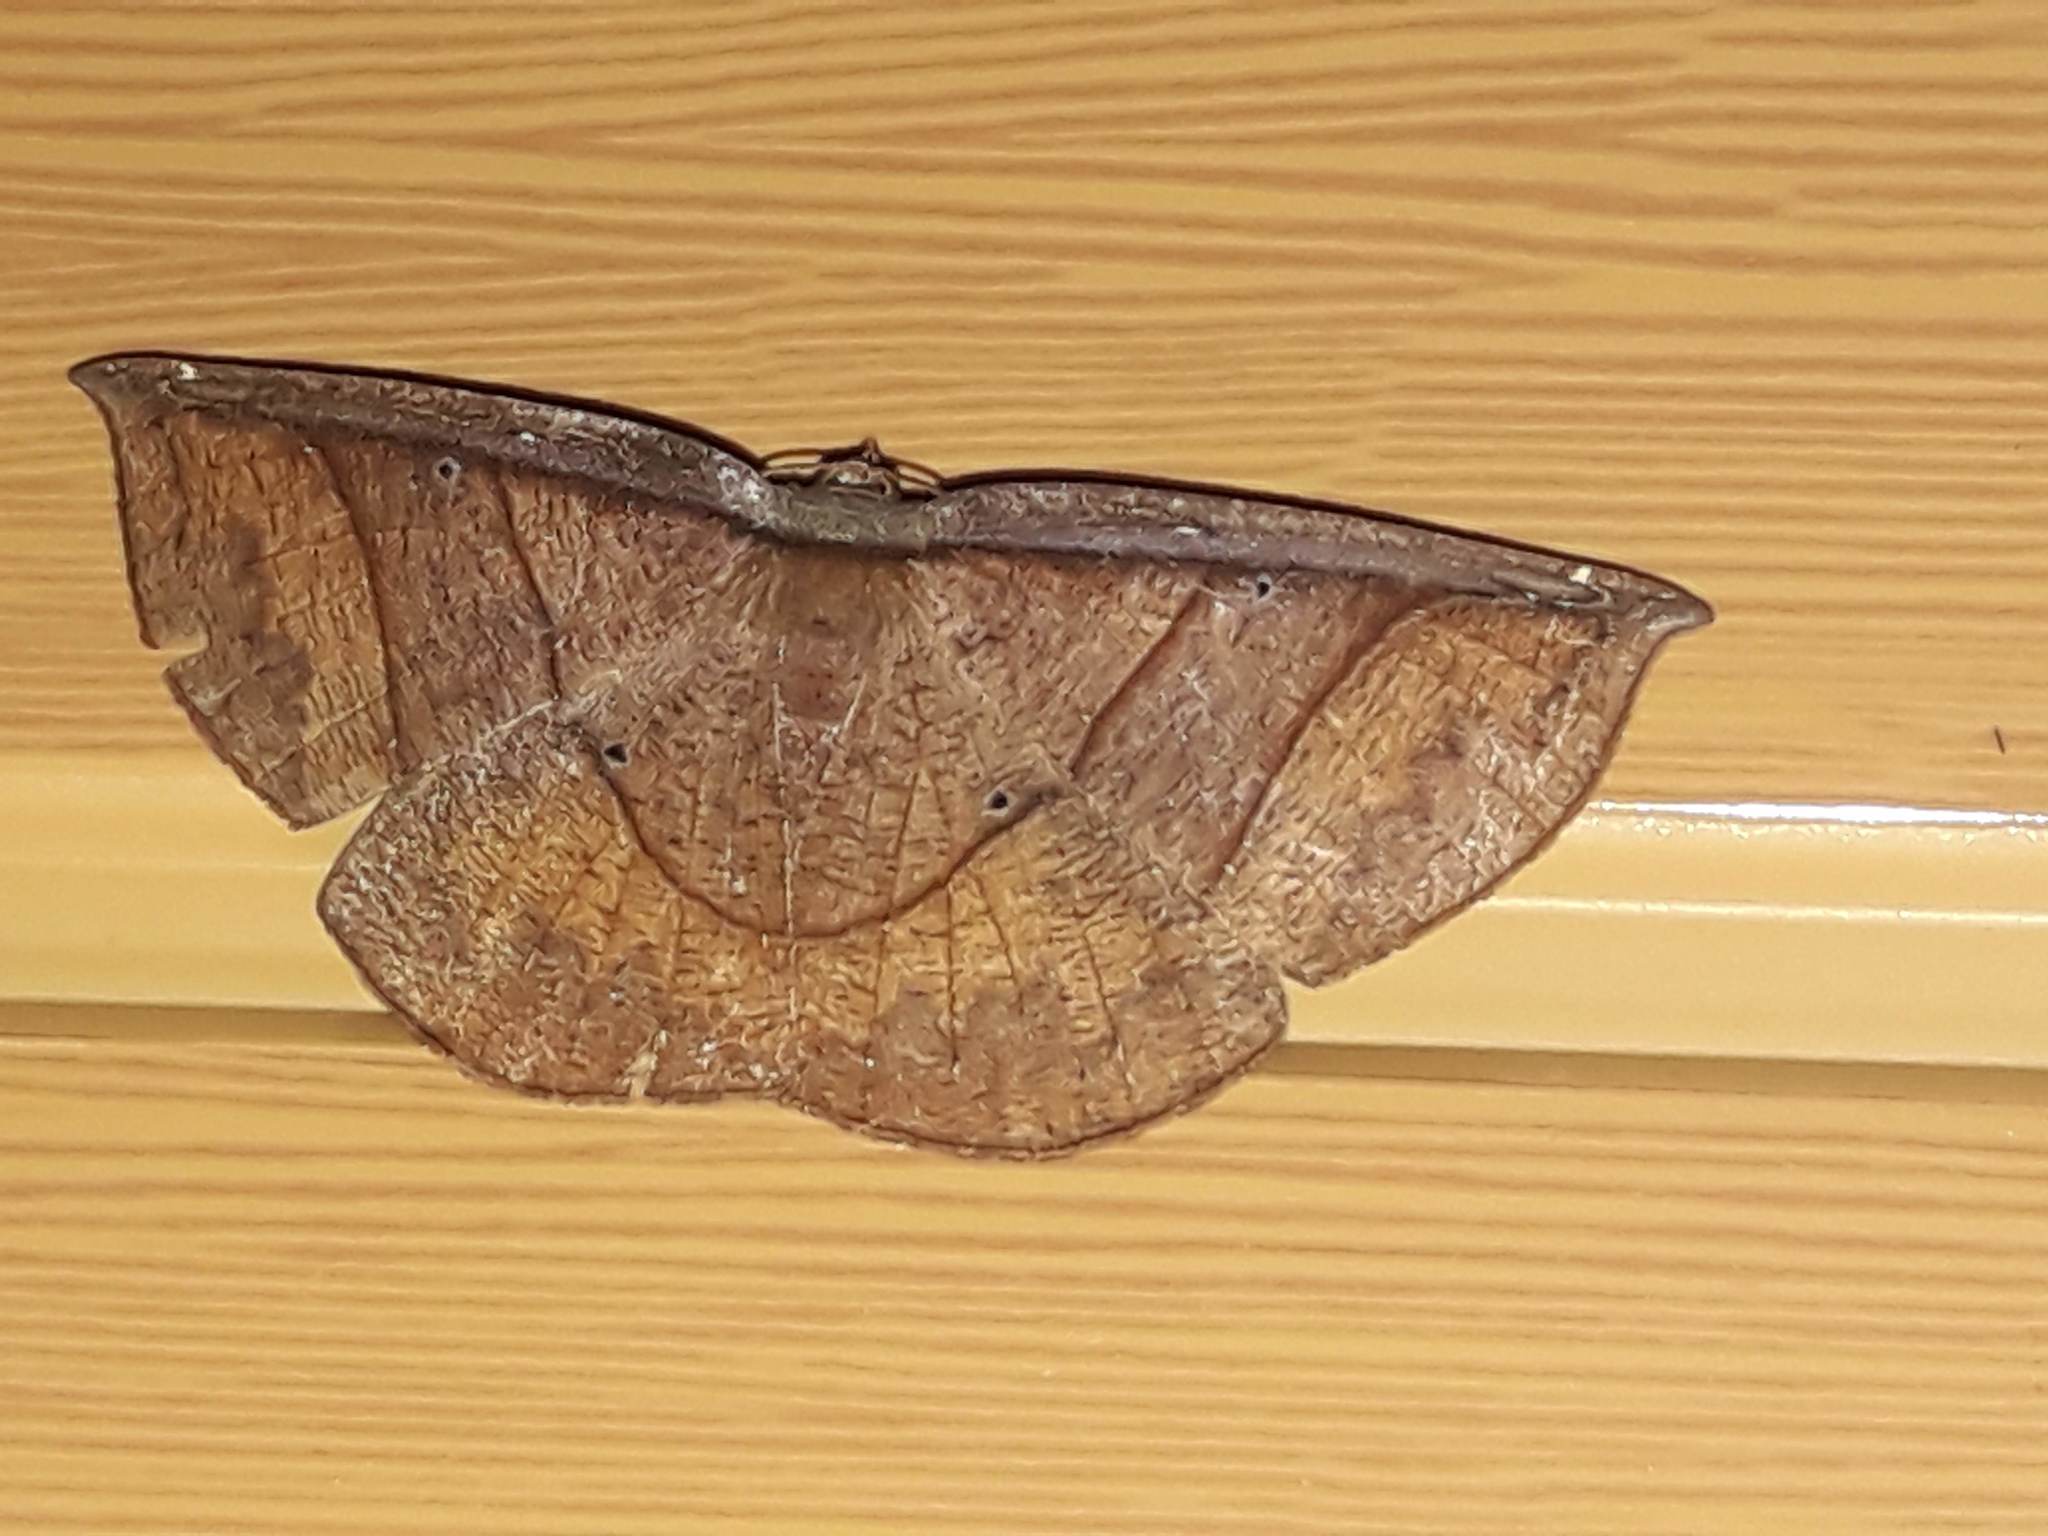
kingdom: Animalia
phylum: Arthropoda
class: Insecta
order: Lepidoptera
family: Geometridae
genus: Cimicodes
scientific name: Cimicodes albicosta
